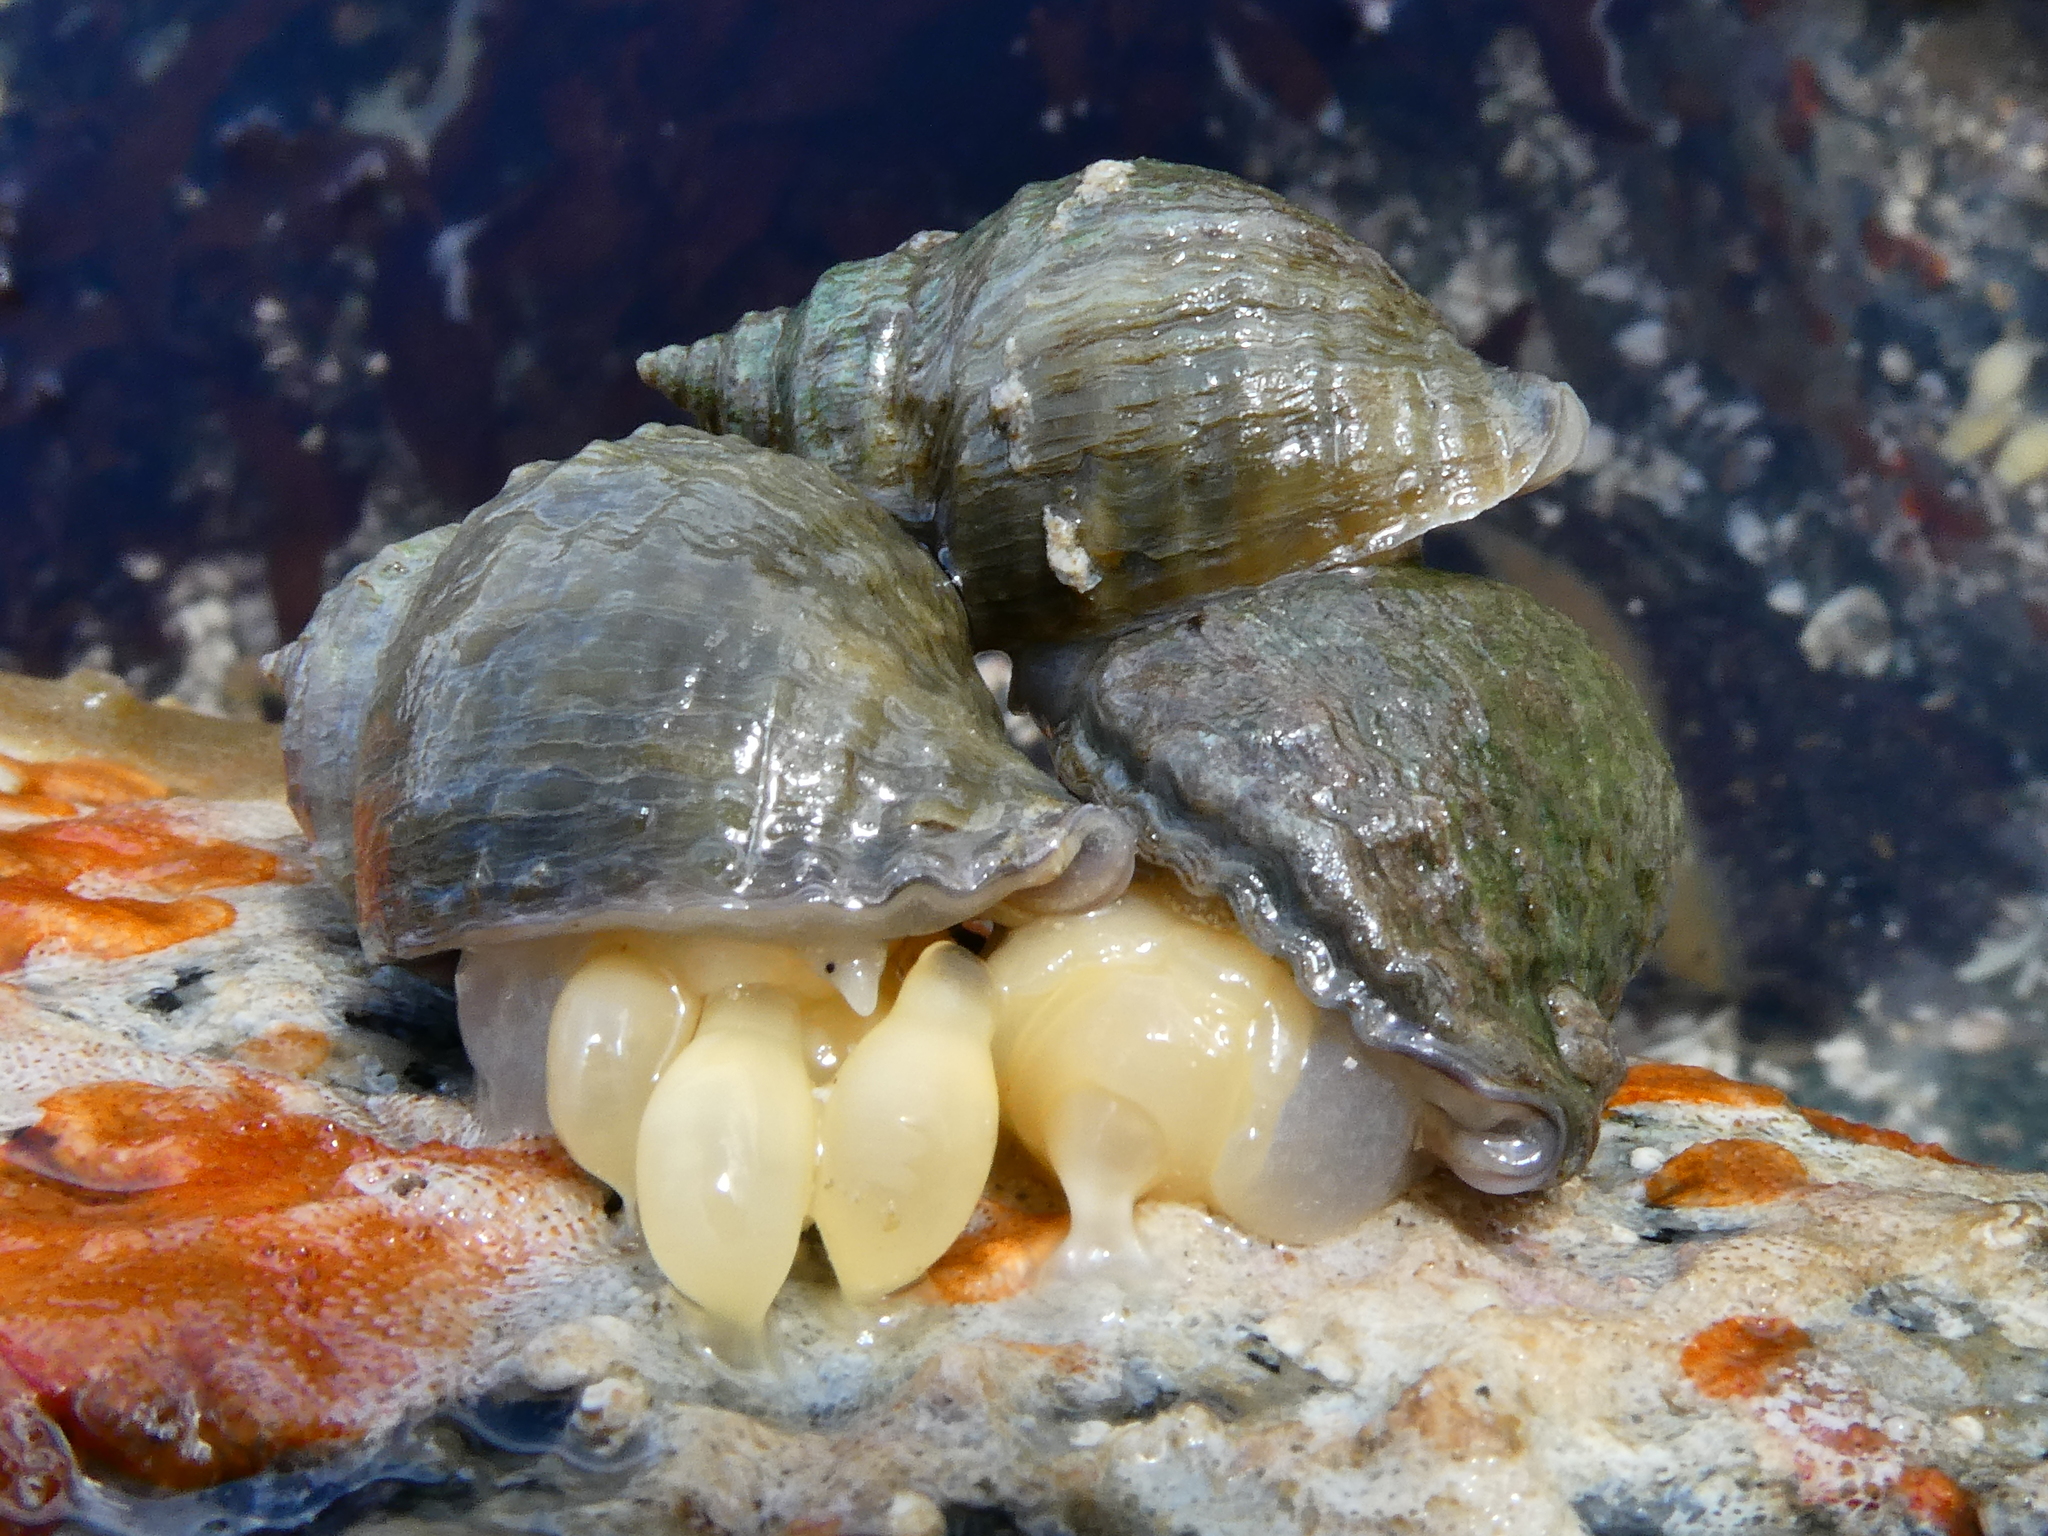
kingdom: Animalia
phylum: Mollusca
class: Gastropoda
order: Neogastropoda
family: Muricidae
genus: Nucella
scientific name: Nucella lamellosa
